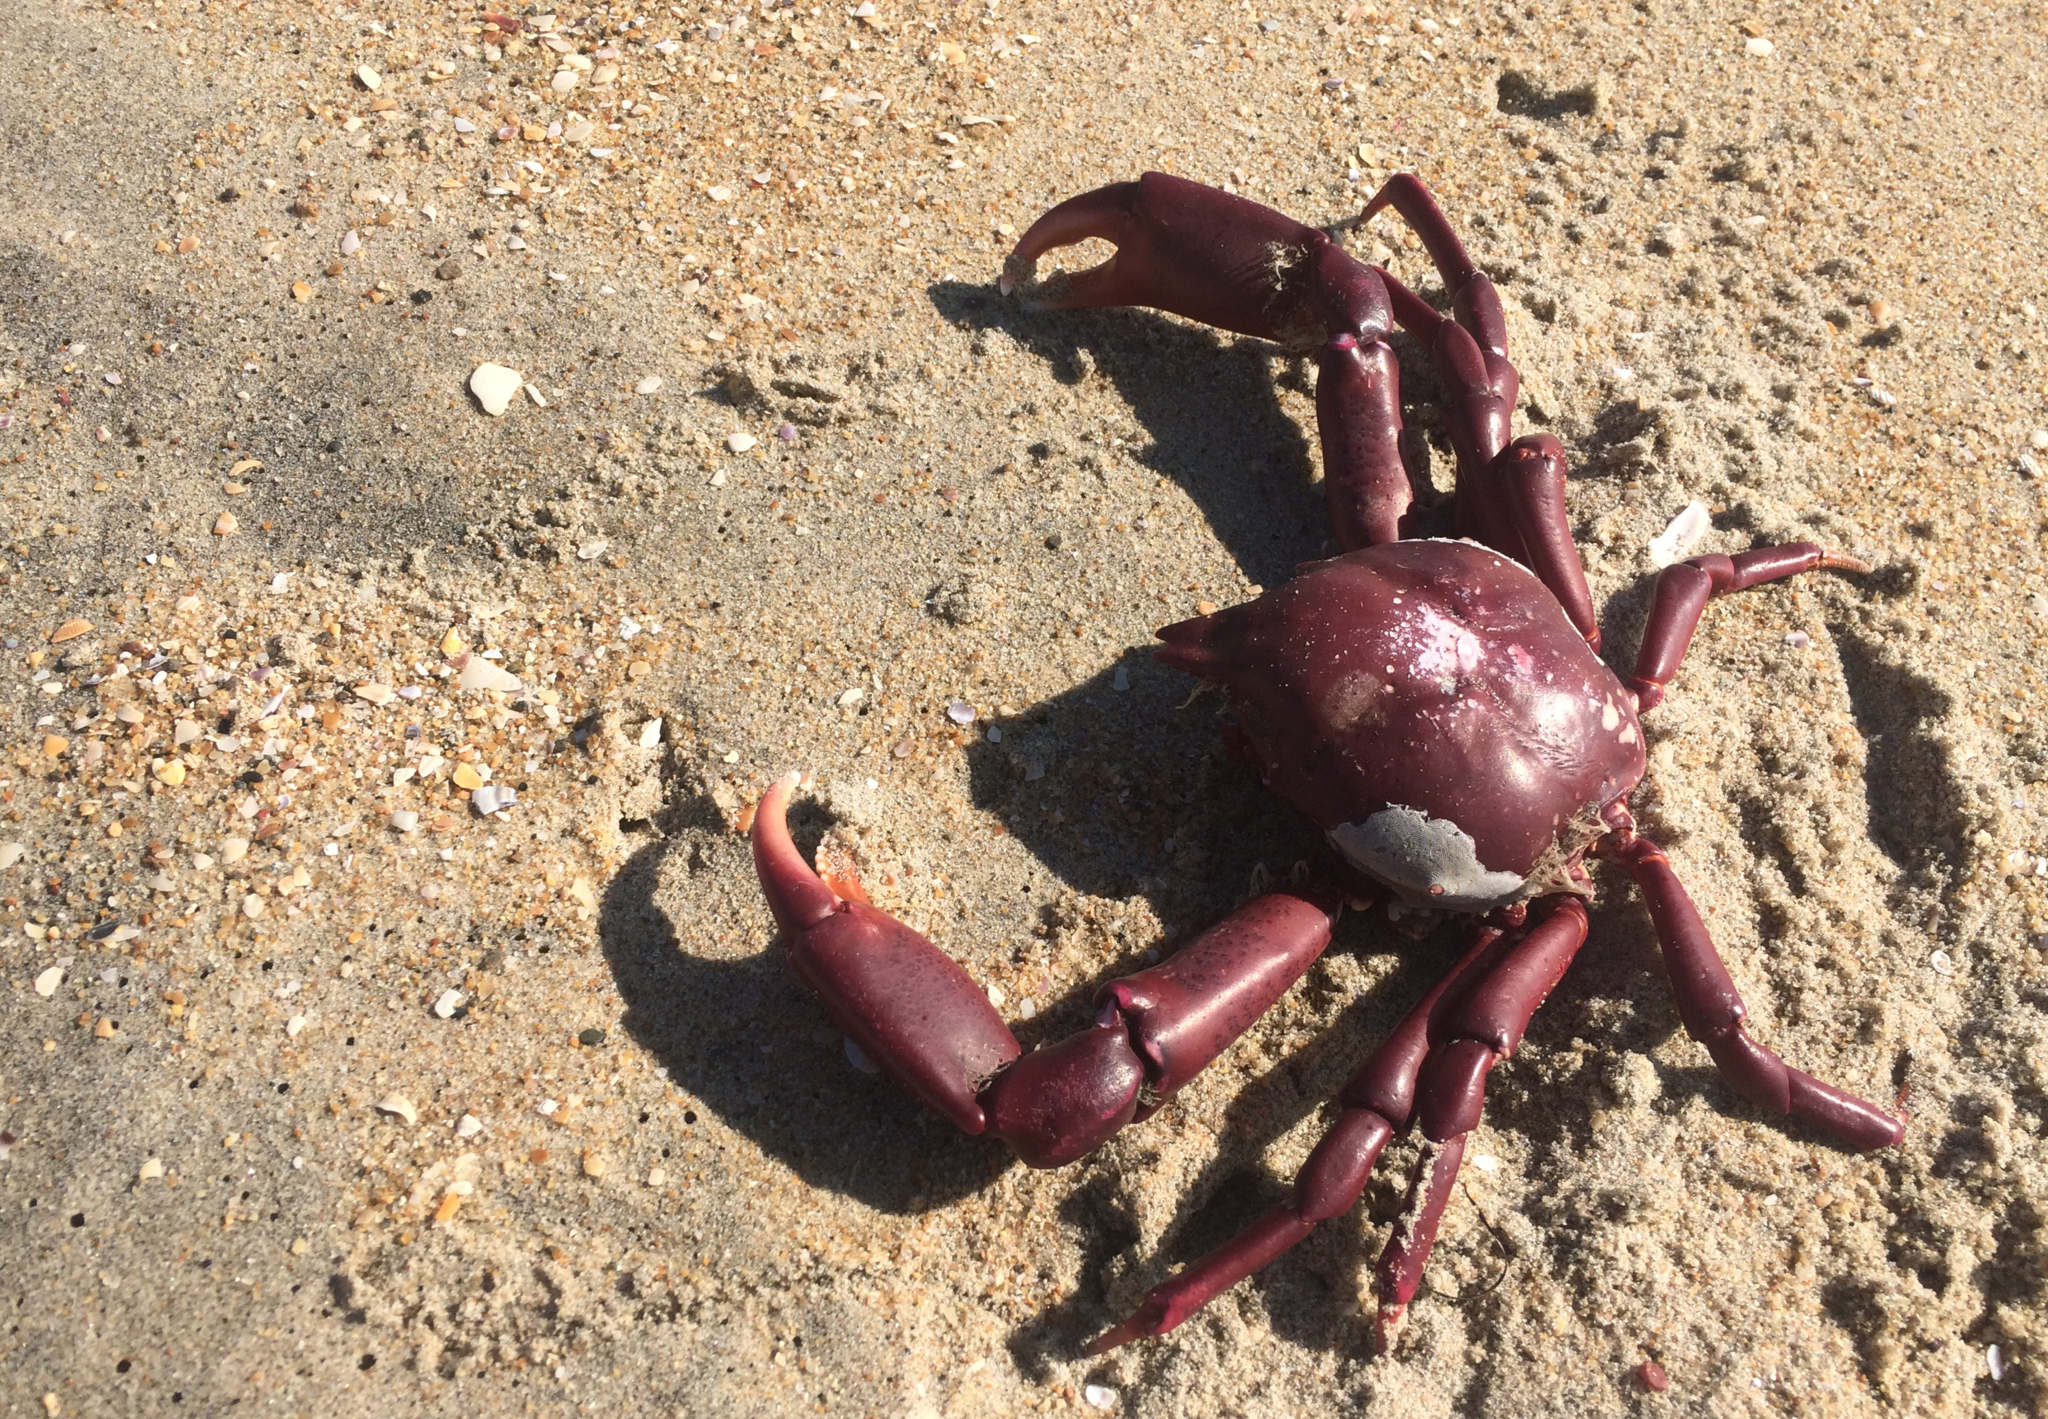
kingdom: Animalia
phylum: Arthropoda
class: Malacostraca
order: Decapoda
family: Epialtidae
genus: Taliepus
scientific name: Taliepus nuttallii
